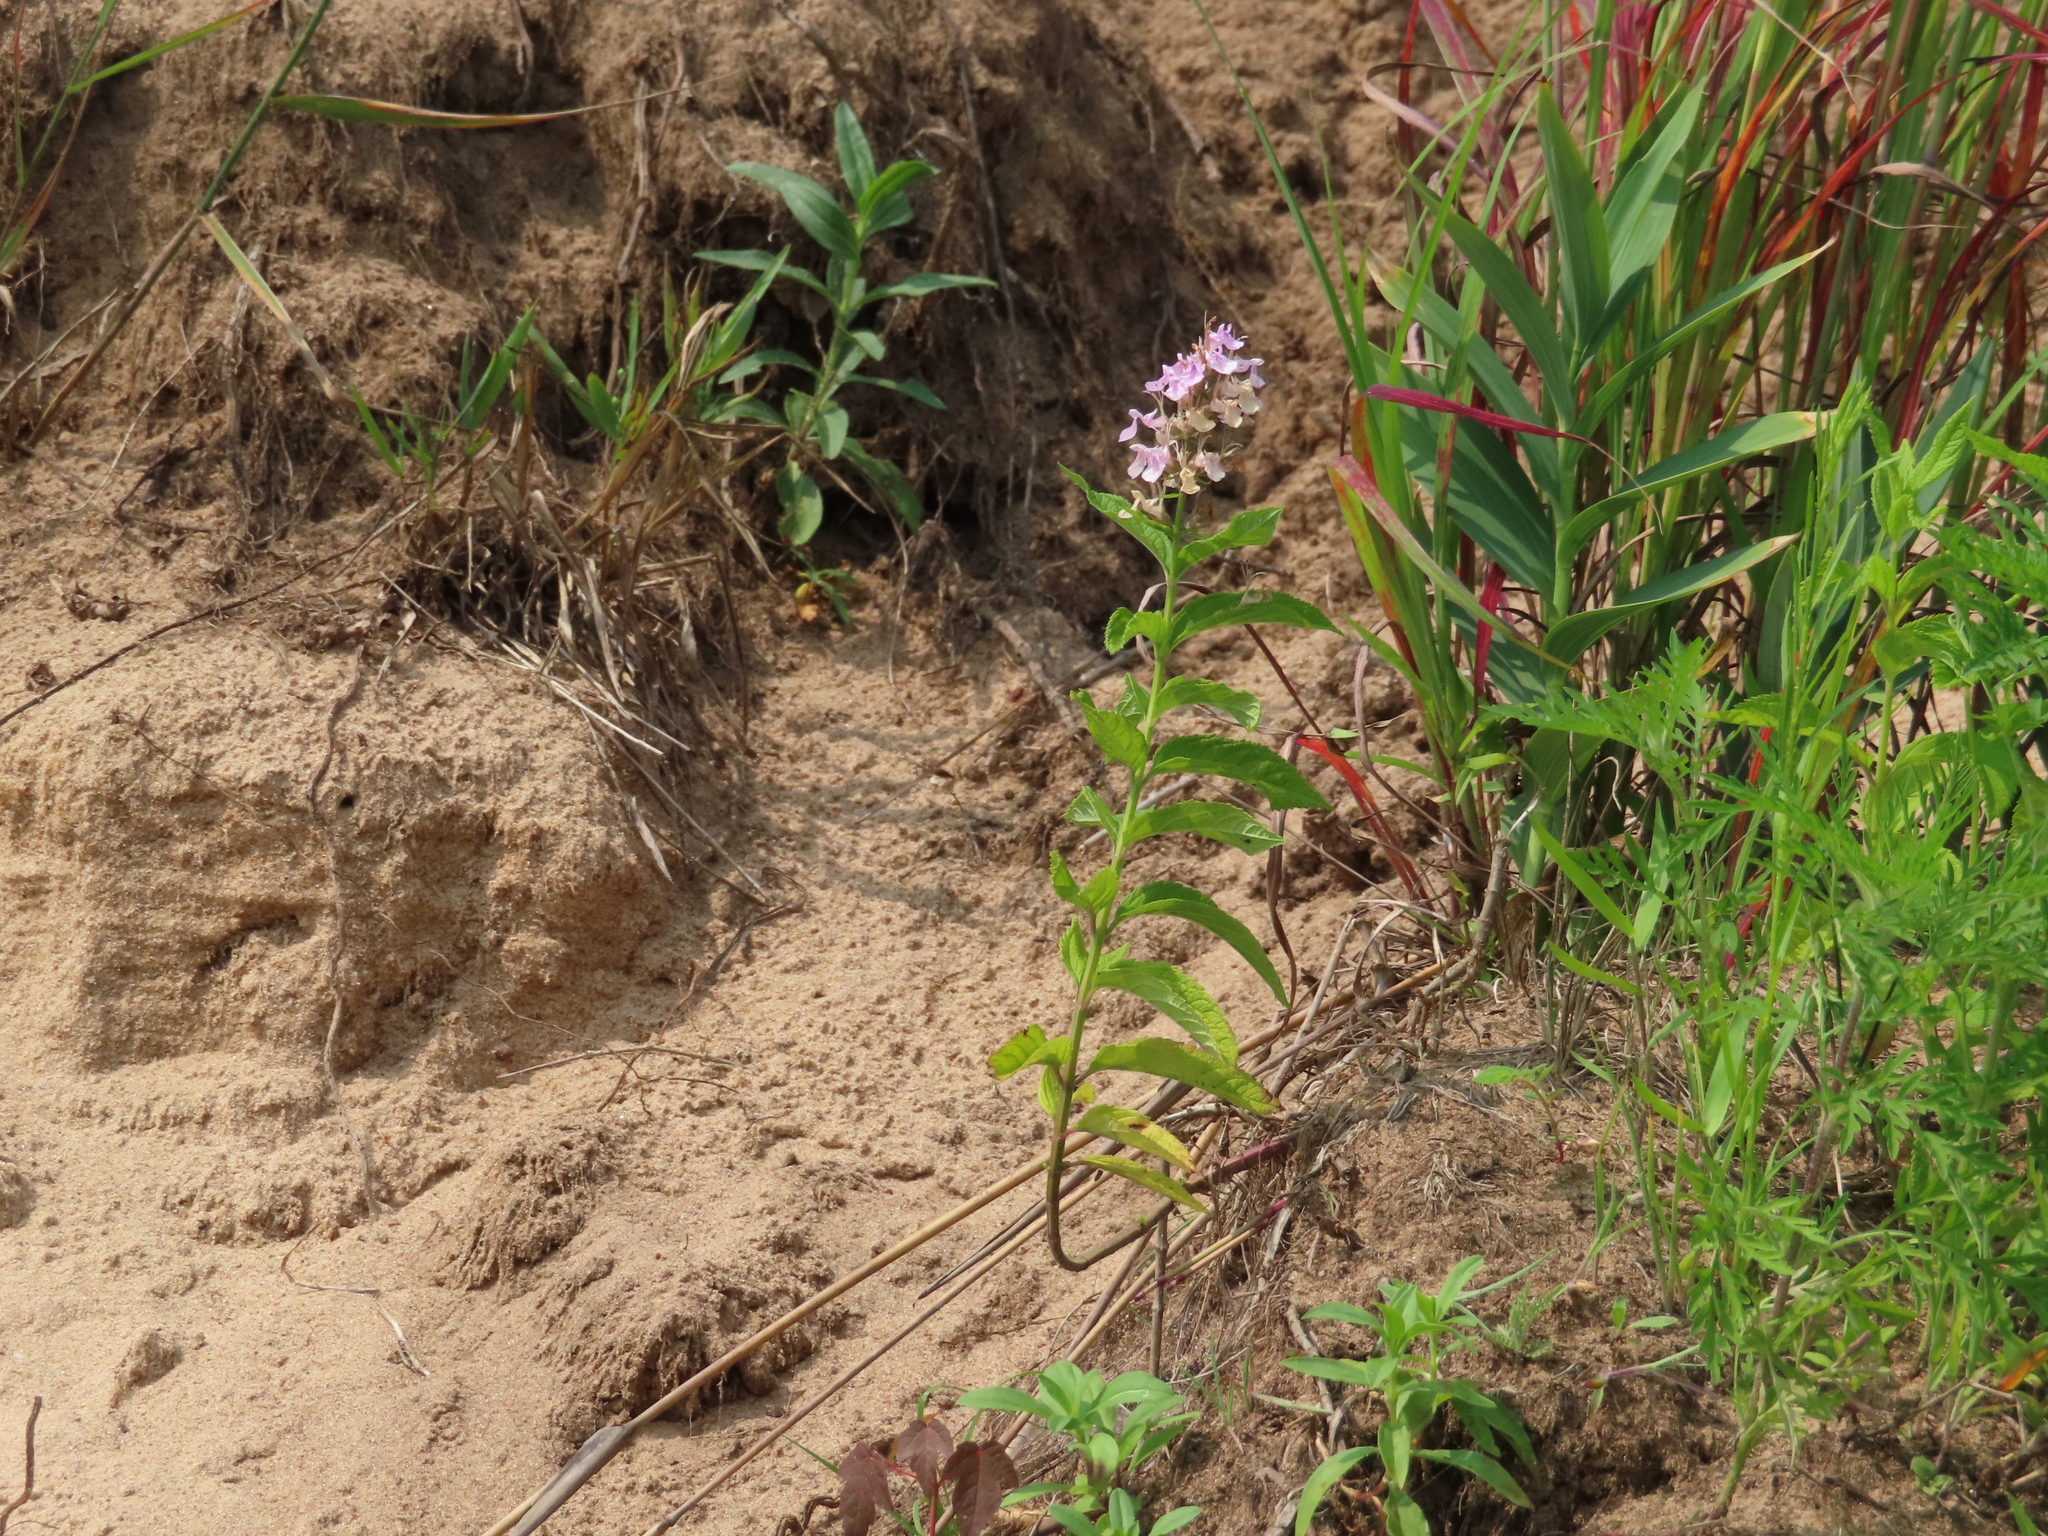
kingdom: Plantae
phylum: Tracheophyta
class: Magnoliopsida
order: Lamiales
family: Lamiaceae
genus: Teucrium
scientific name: Teucrium canadense
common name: American germander
